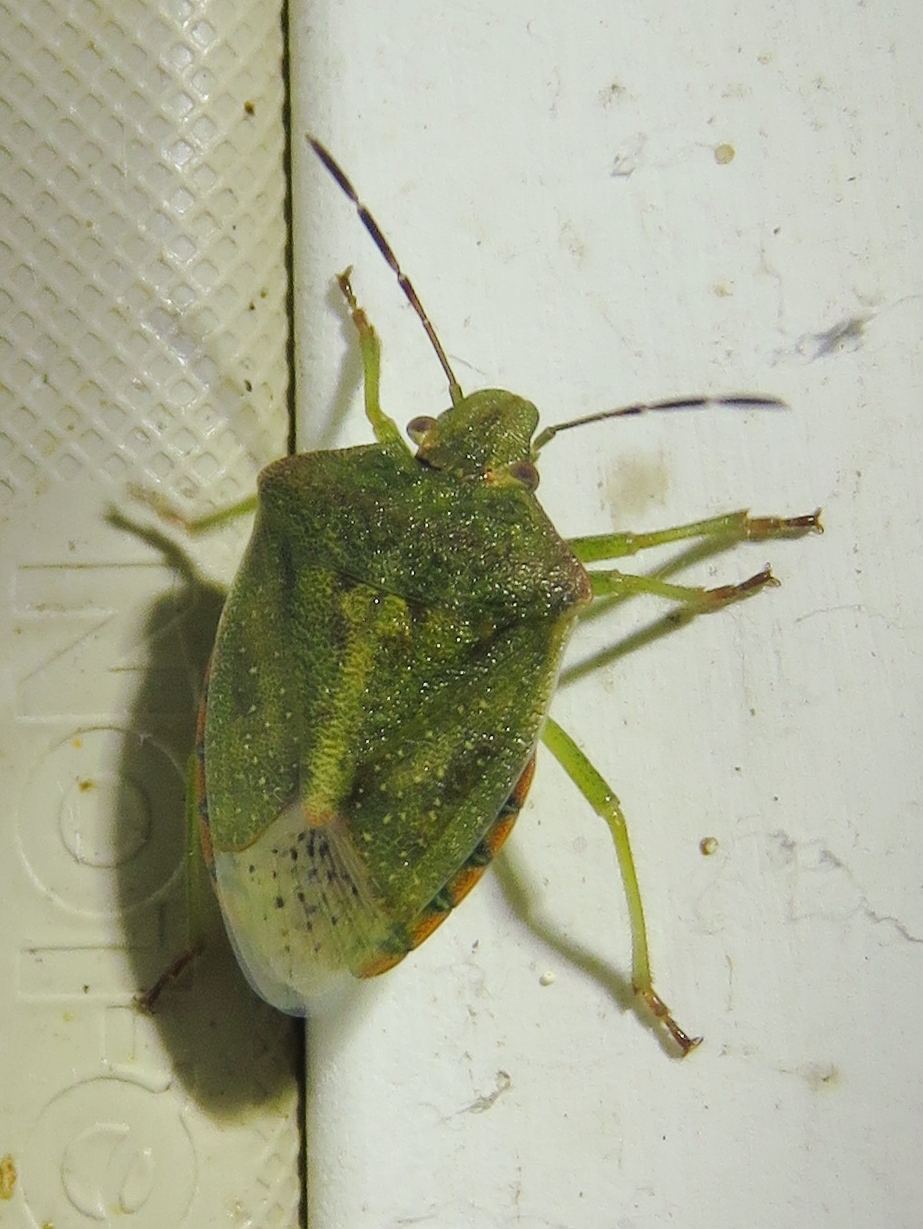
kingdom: Animalia
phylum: Arthropoda
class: Insecta
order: Hemiptera
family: Pentatomidae
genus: Thyanta
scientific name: Thyanta custator
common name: Stink bug
